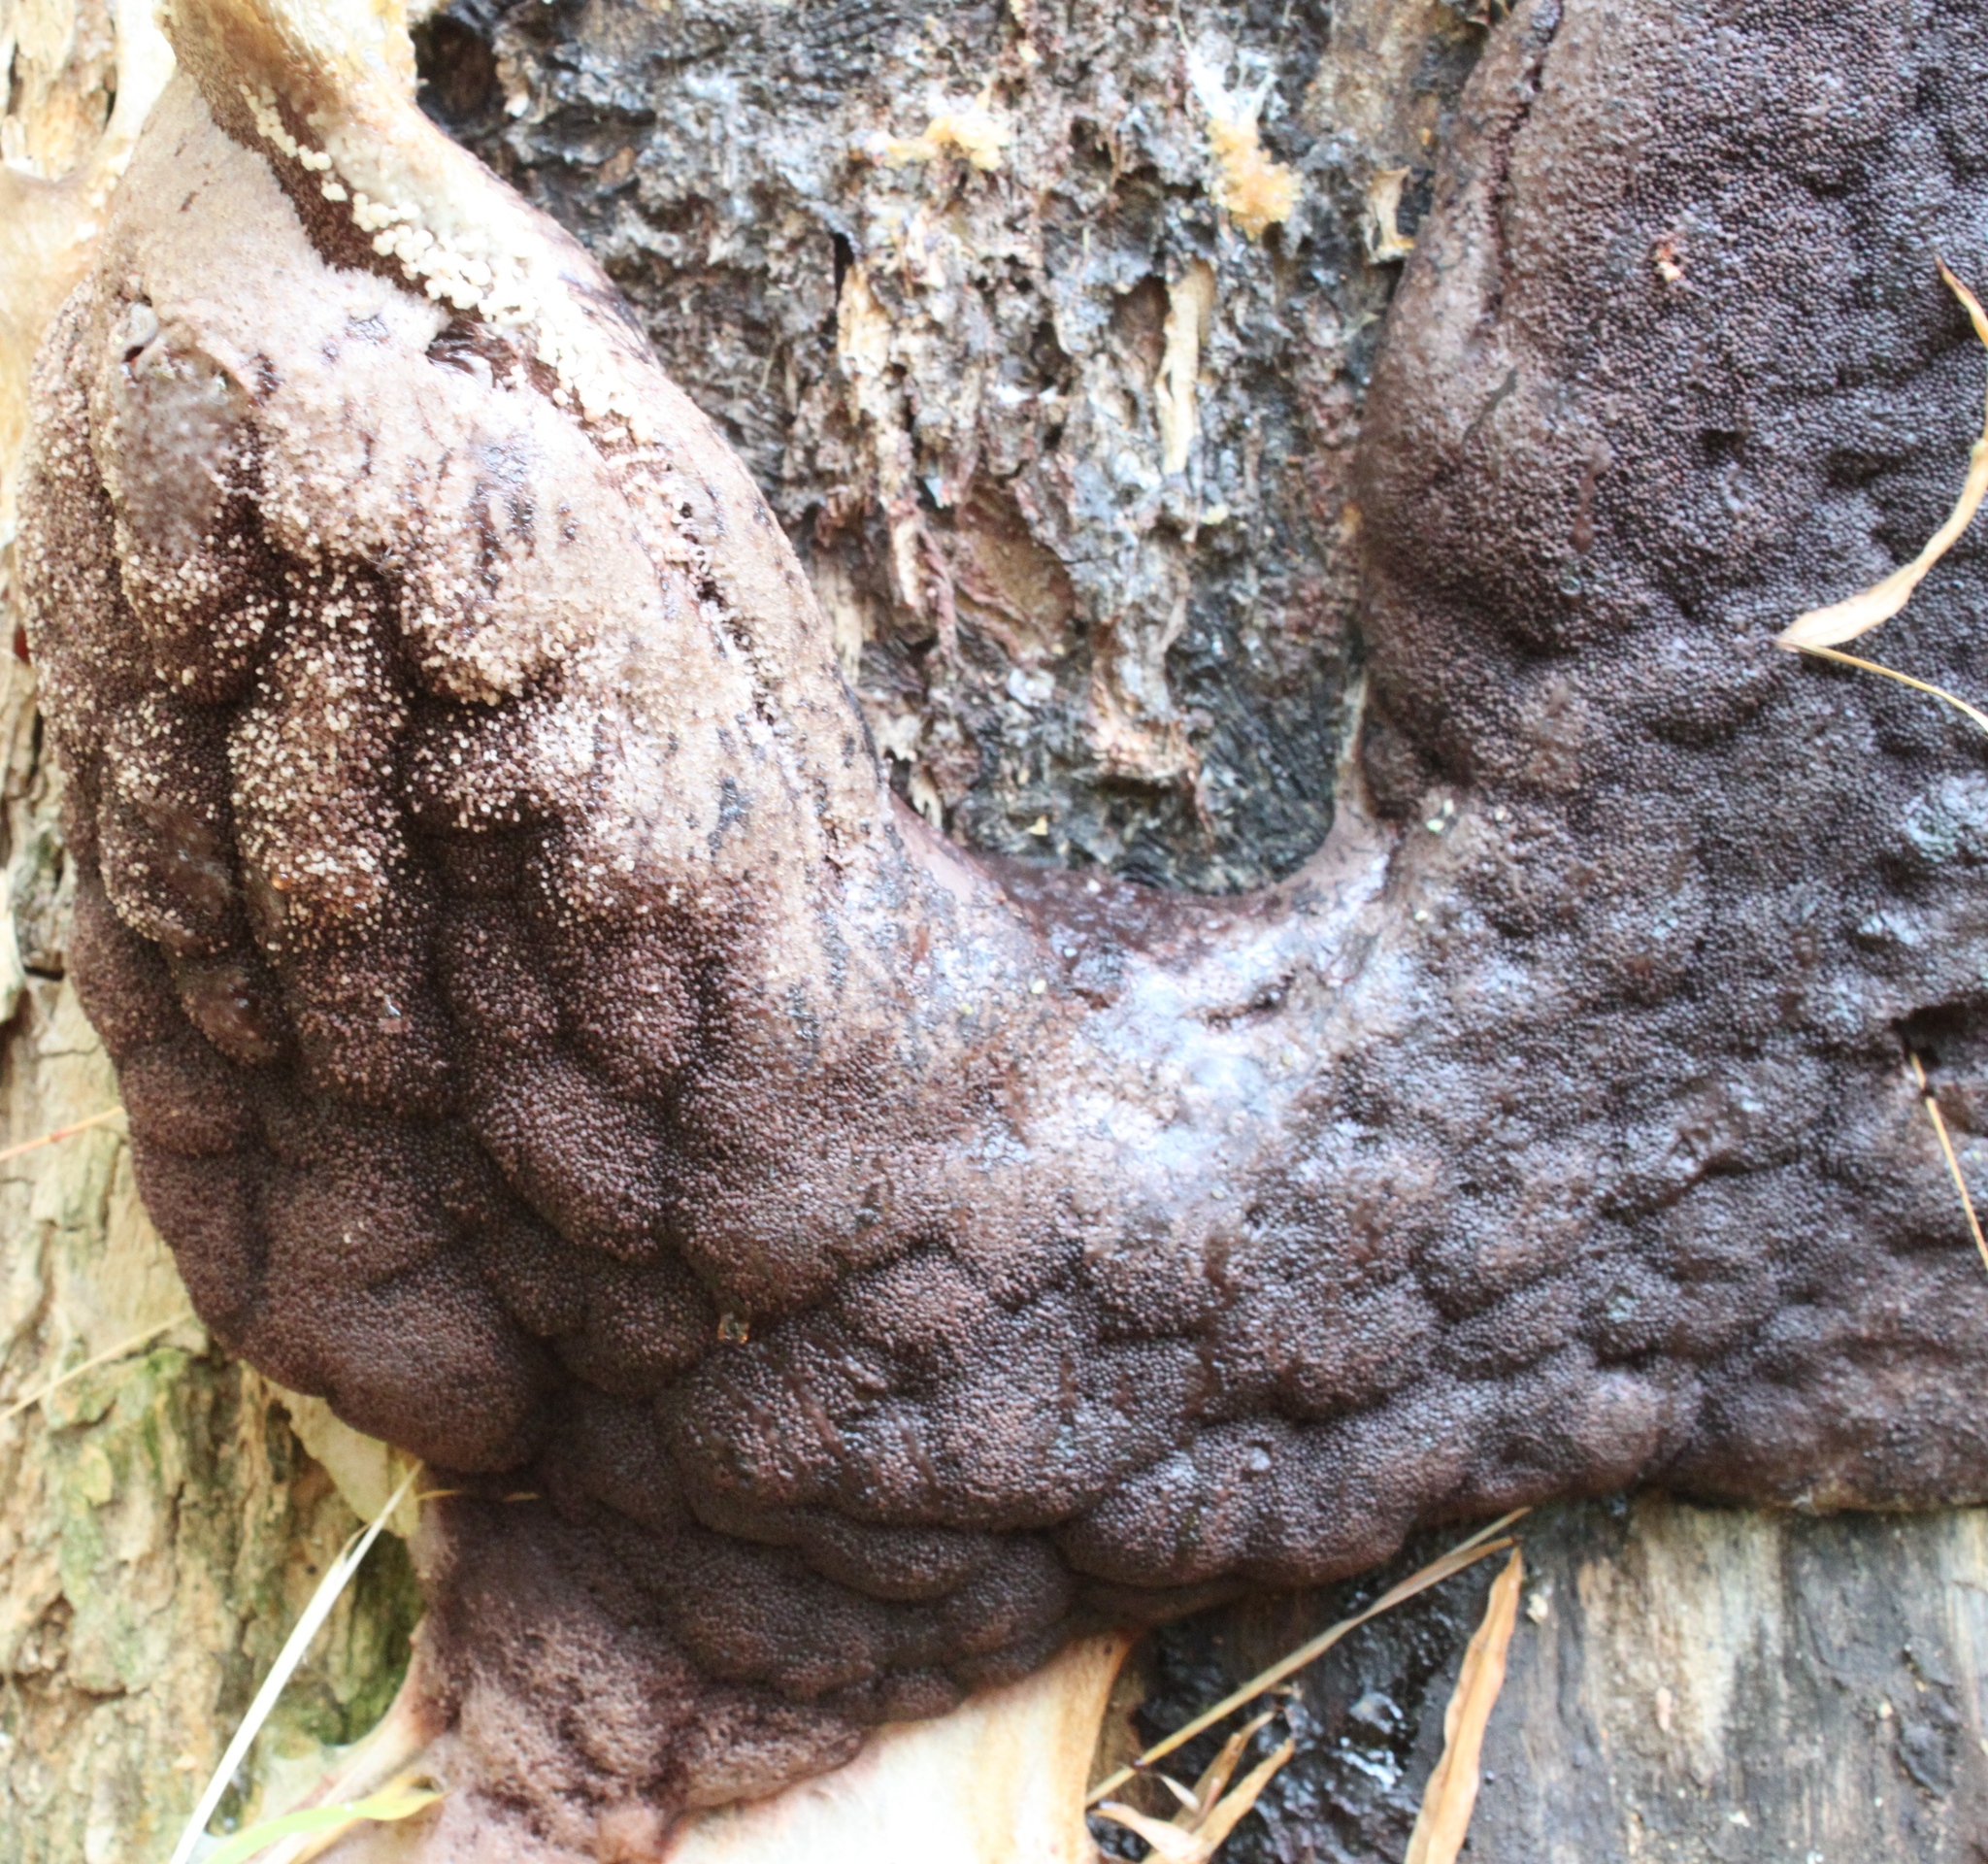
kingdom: Protozoa
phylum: Mycetozoa
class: Myxomycetes
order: Stemonitidales
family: Stemonitidaceae
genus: Brefeldia
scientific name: Brefeldia maxima
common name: Tapioca slime mold
